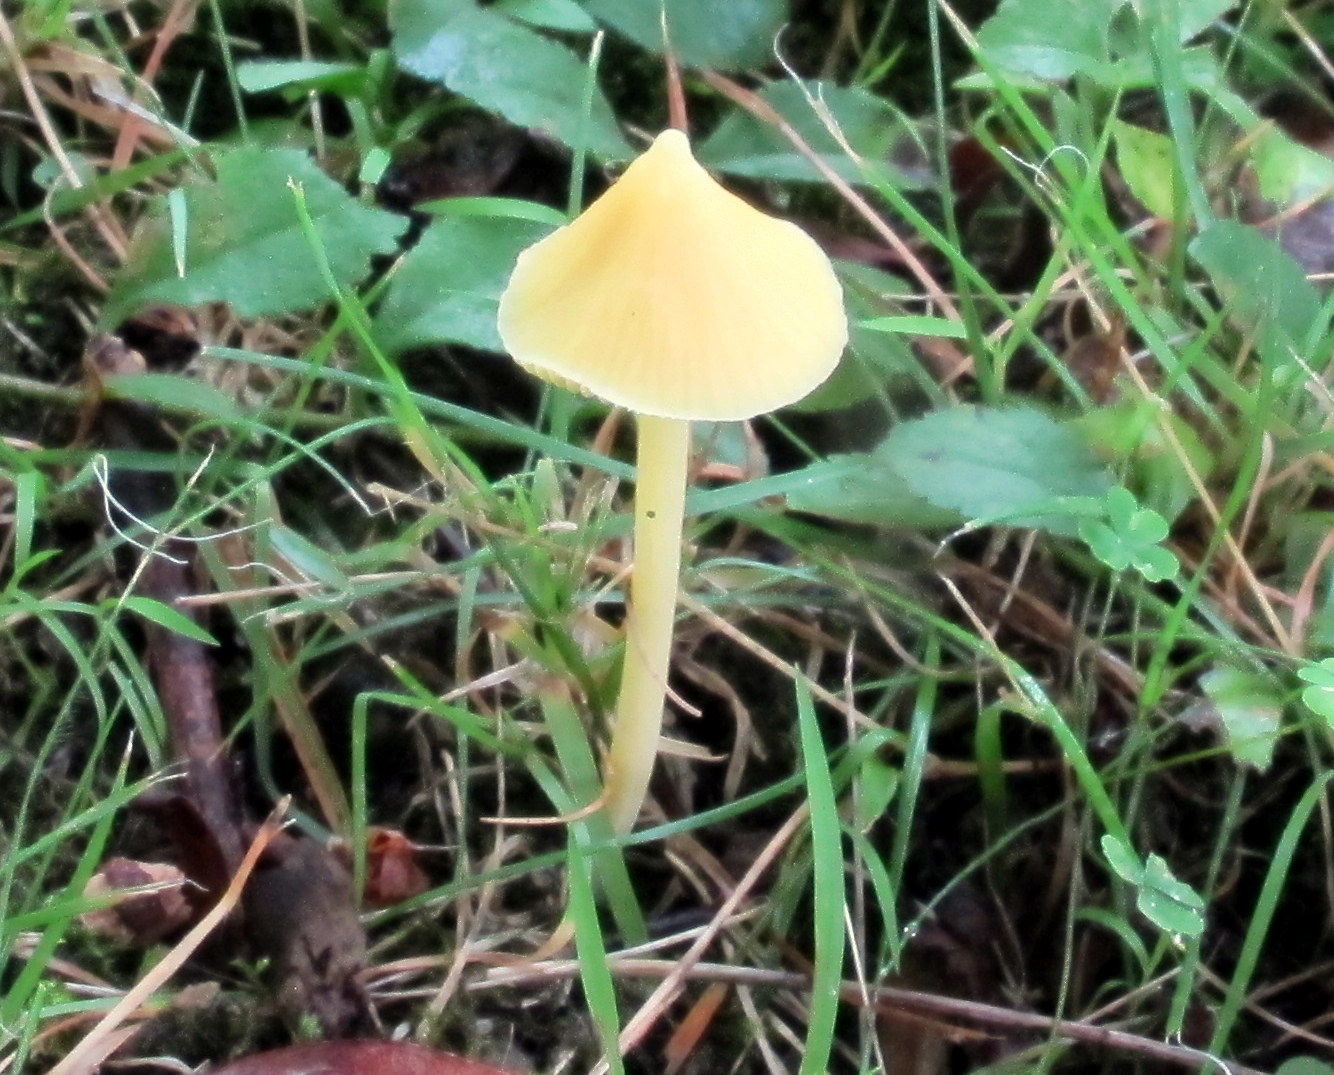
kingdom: Fungi
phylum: Basidiomycota
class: Agaricomycetes
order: Agaricales
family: Entolomataceae
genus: Entoloma
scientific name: Entoloma murrayi
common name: Yellow unicorn entoloma
